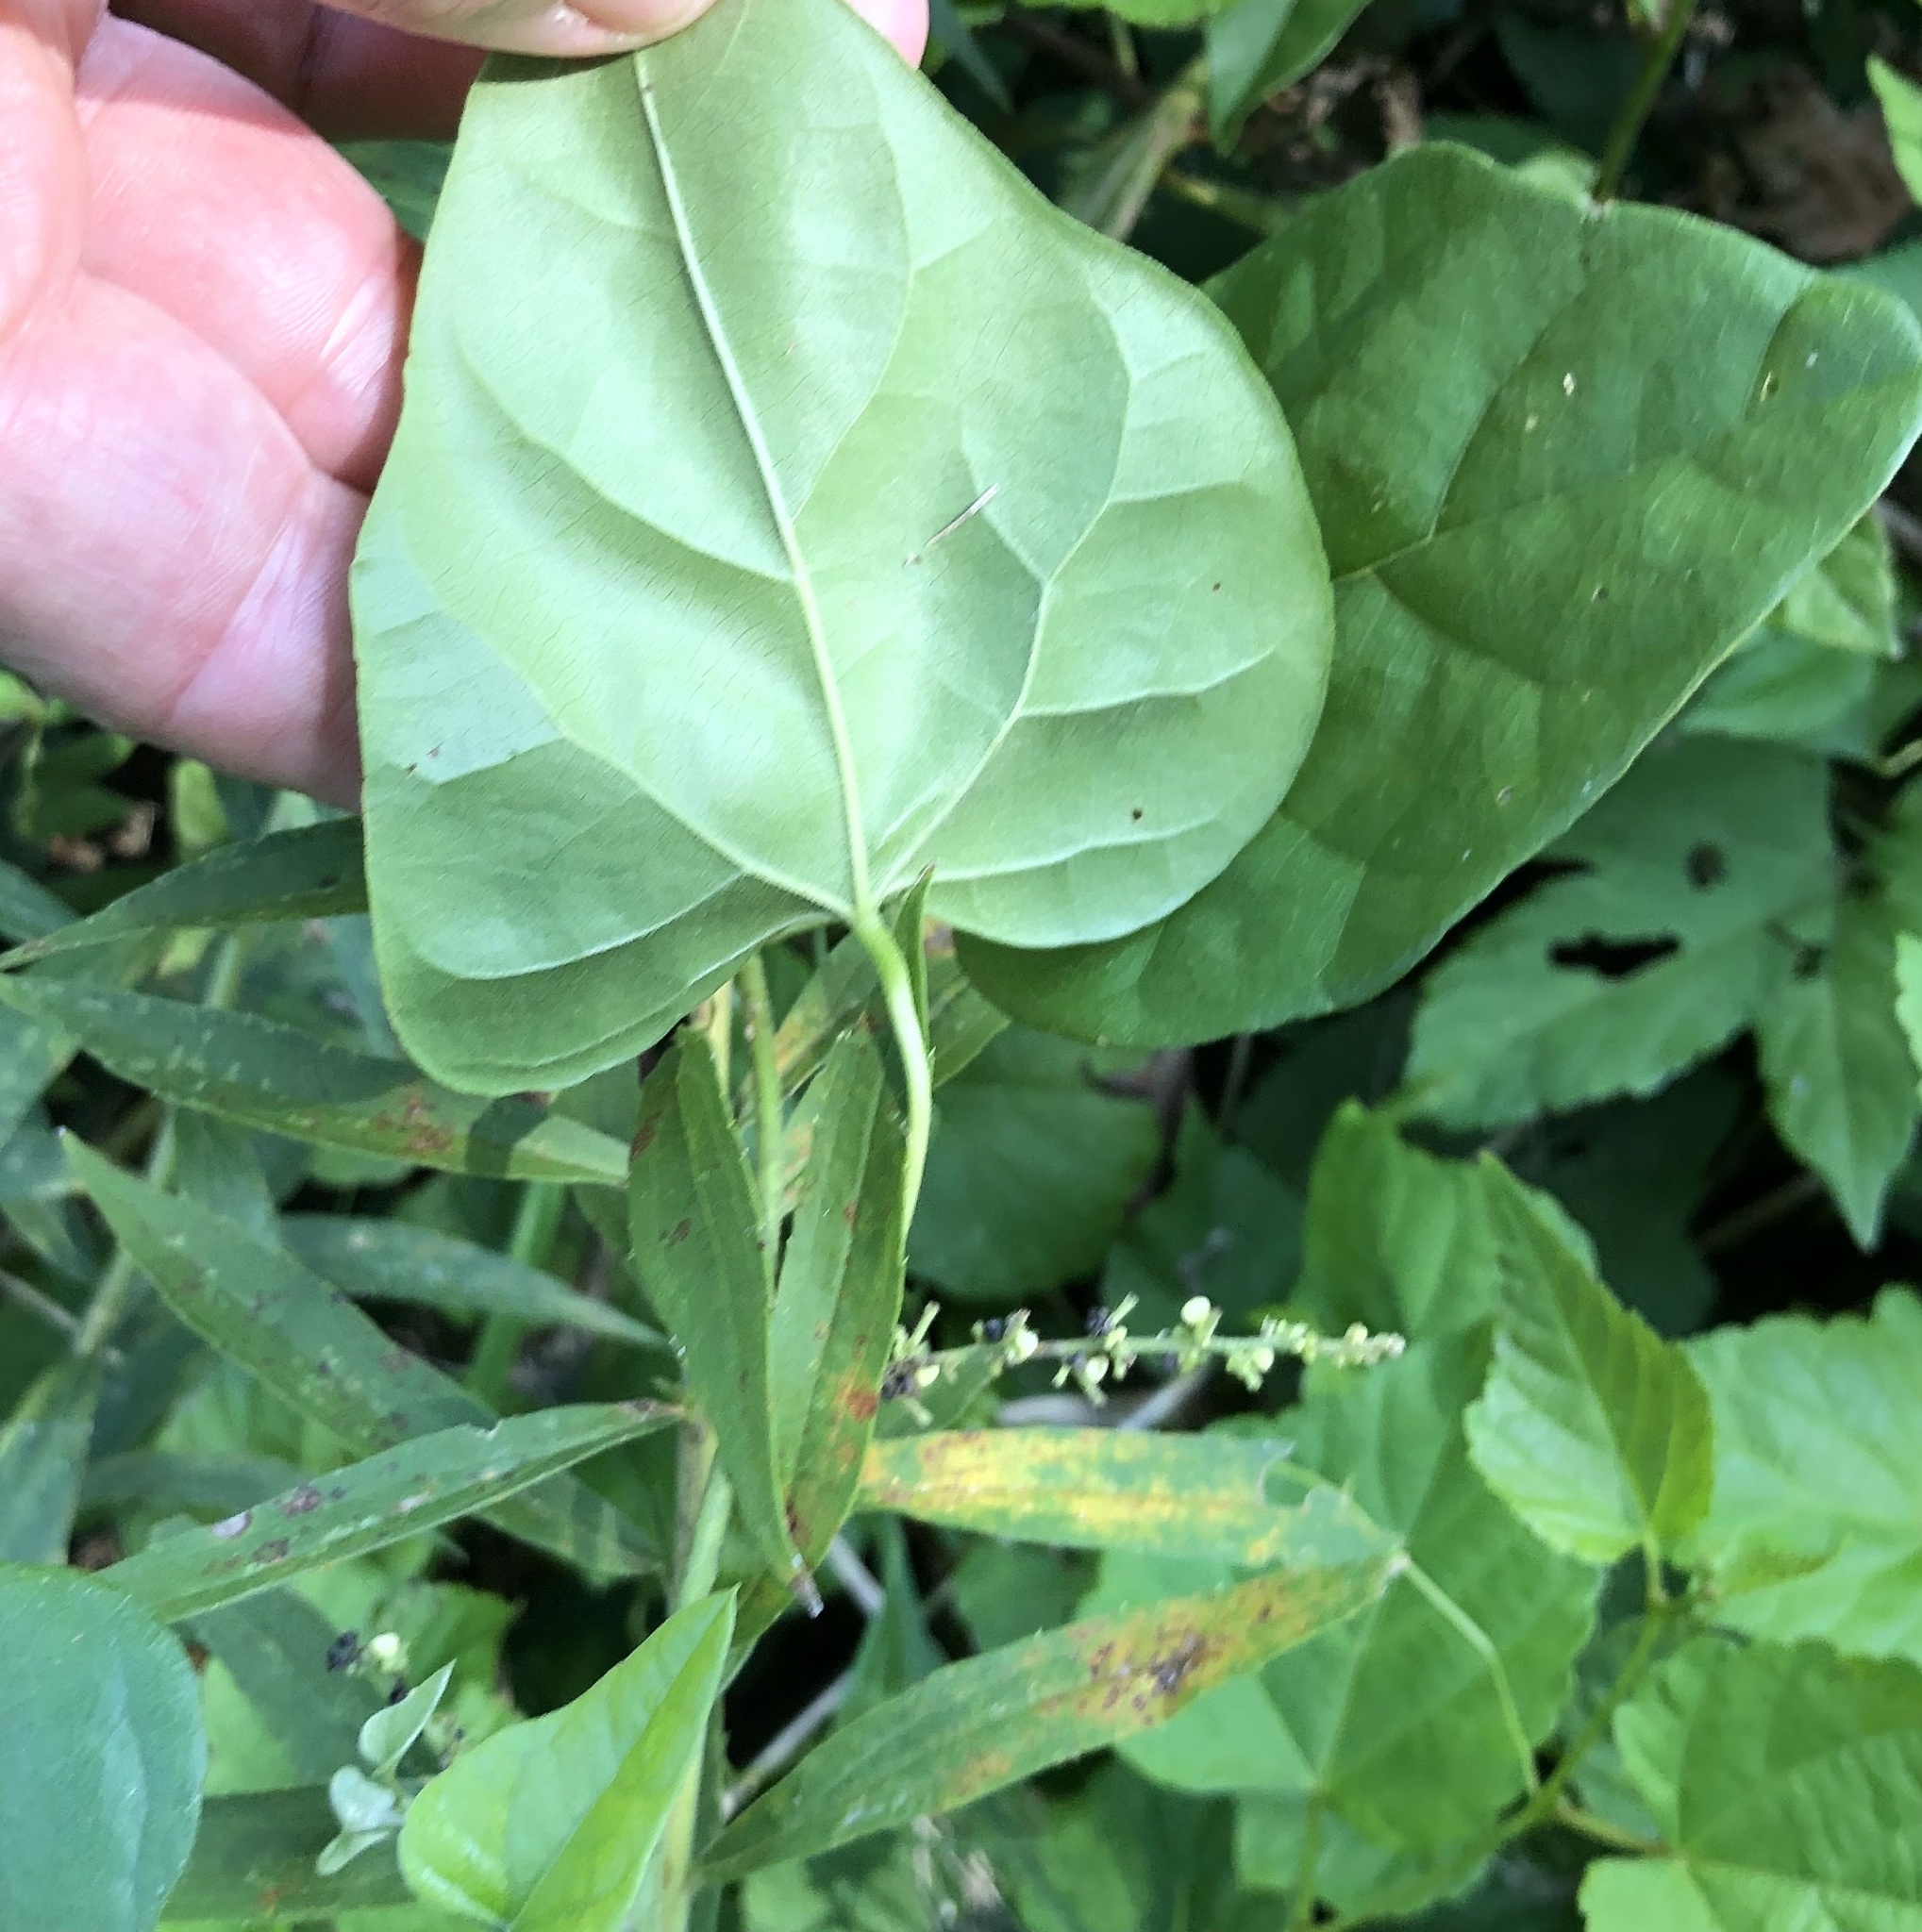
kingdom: Plantae
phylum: Tracheophyta
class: Magnoliopsida
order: Ranunculales
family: Menispermaceae
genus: Cocculus
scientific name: Cocculus carolinus
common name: Carolina moonseed
